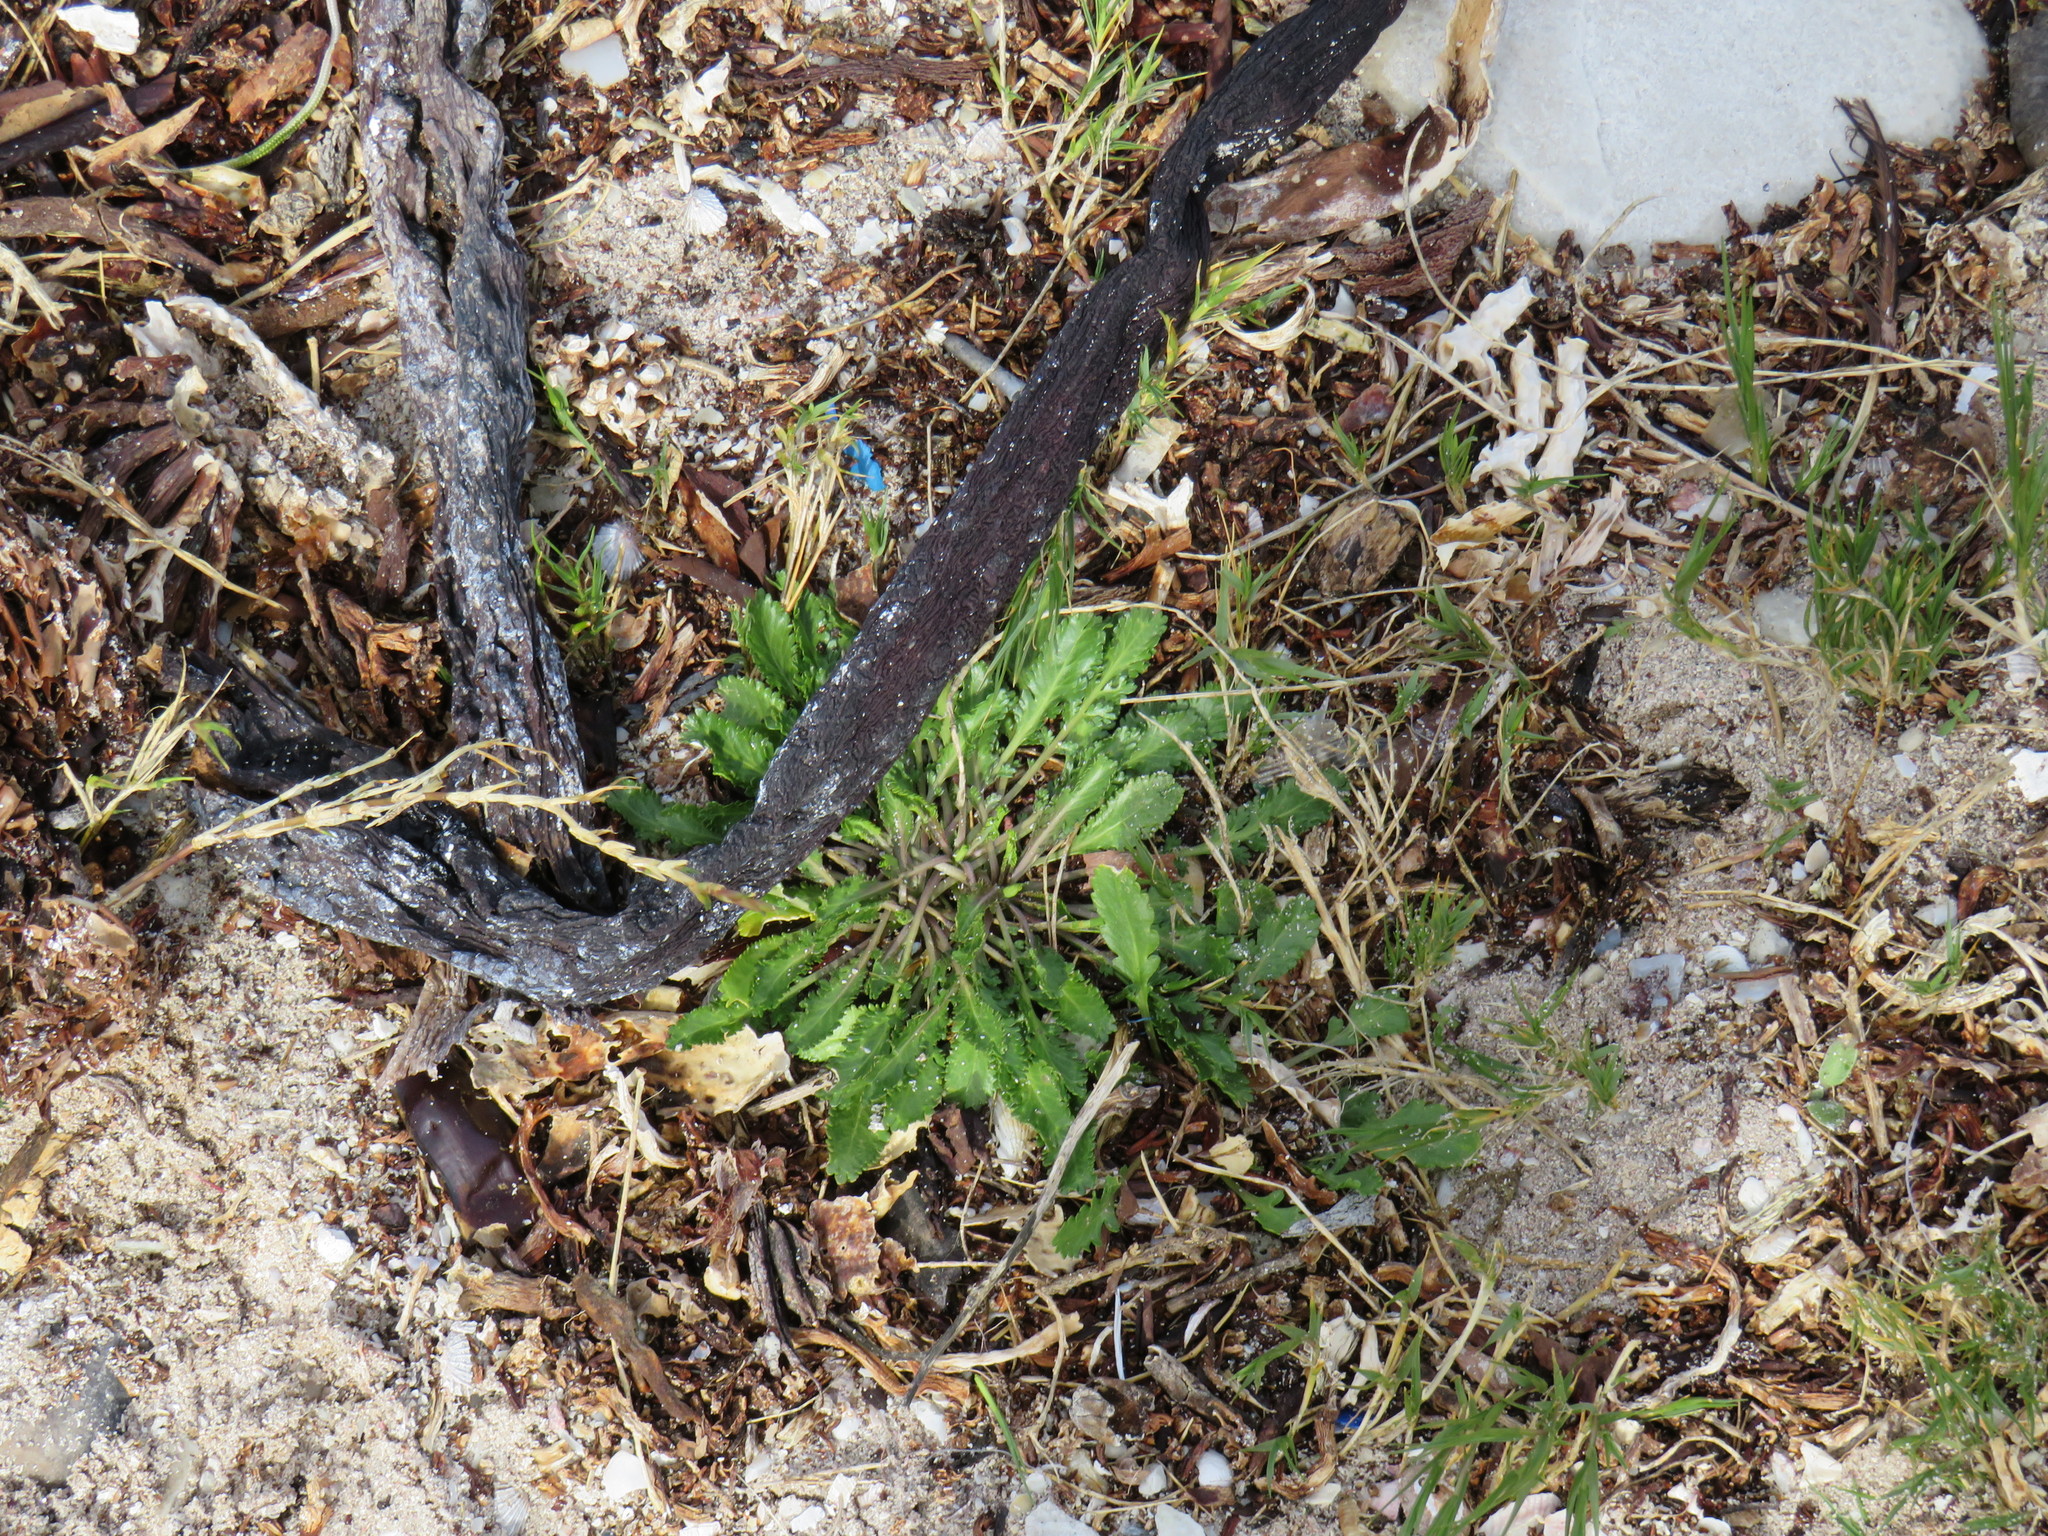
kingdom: Plantae
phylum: Tracheophyta
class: Magnoliopsida
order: Brassicales
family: Brassicaceae
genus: Lepidium
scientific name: Lepidium capense
